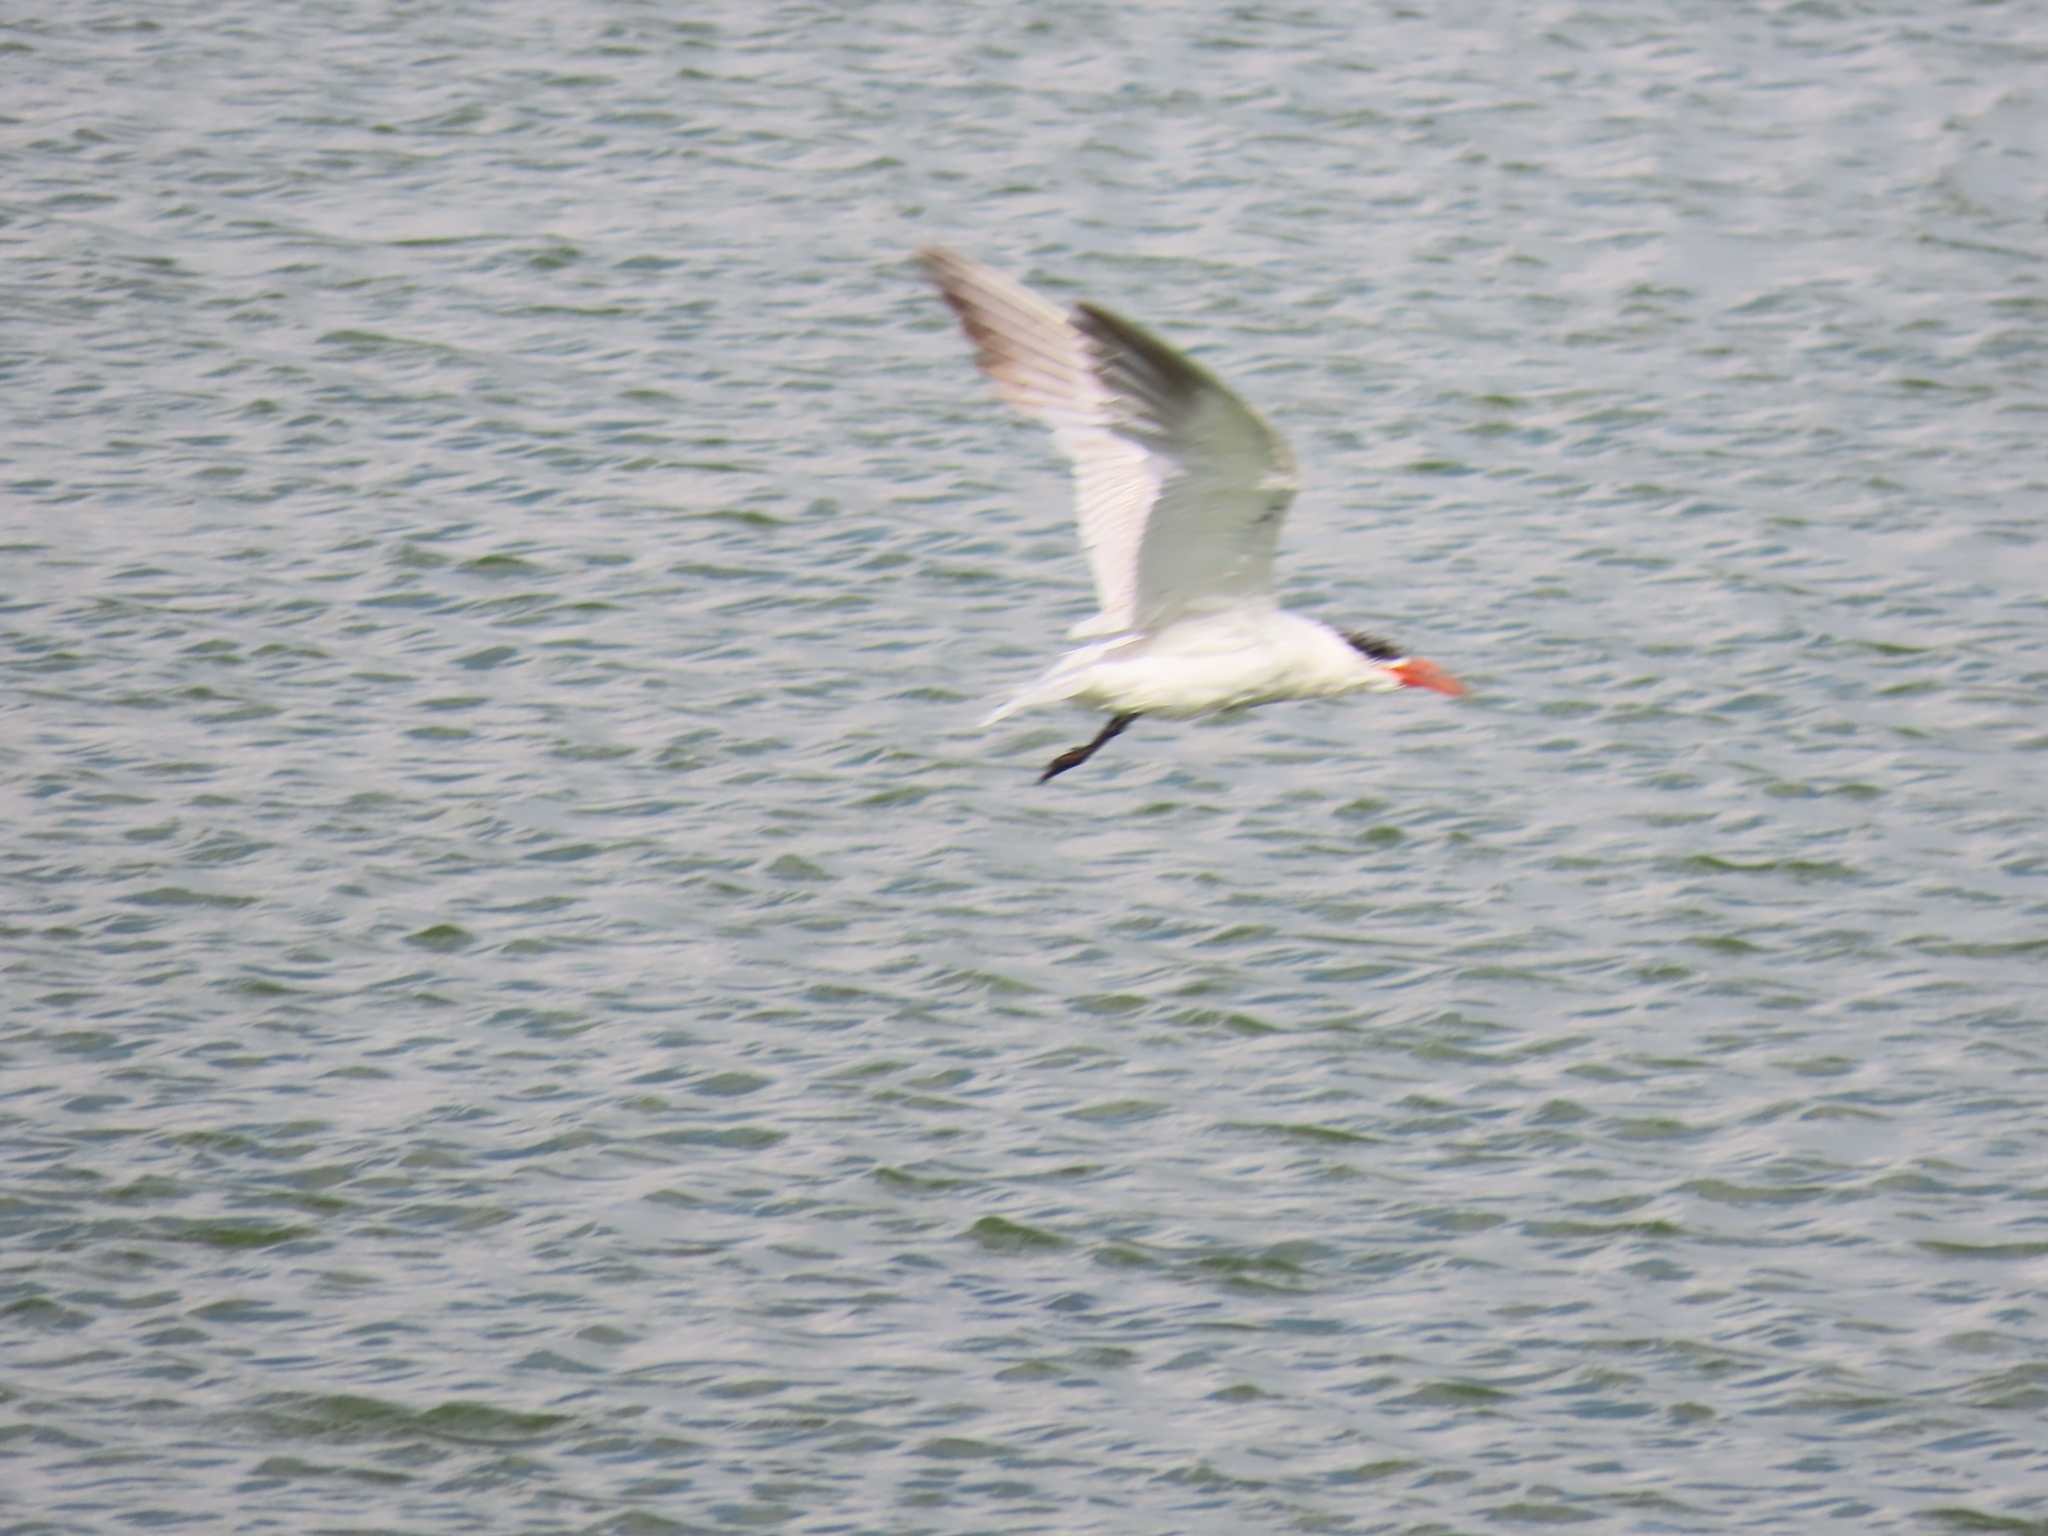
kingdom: Animalia
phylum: Chordata
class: Aves
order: Charadriiformes
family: Laridae
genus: Hydroprogne
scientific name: Hydroprogne caspia
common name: Caspian tern
